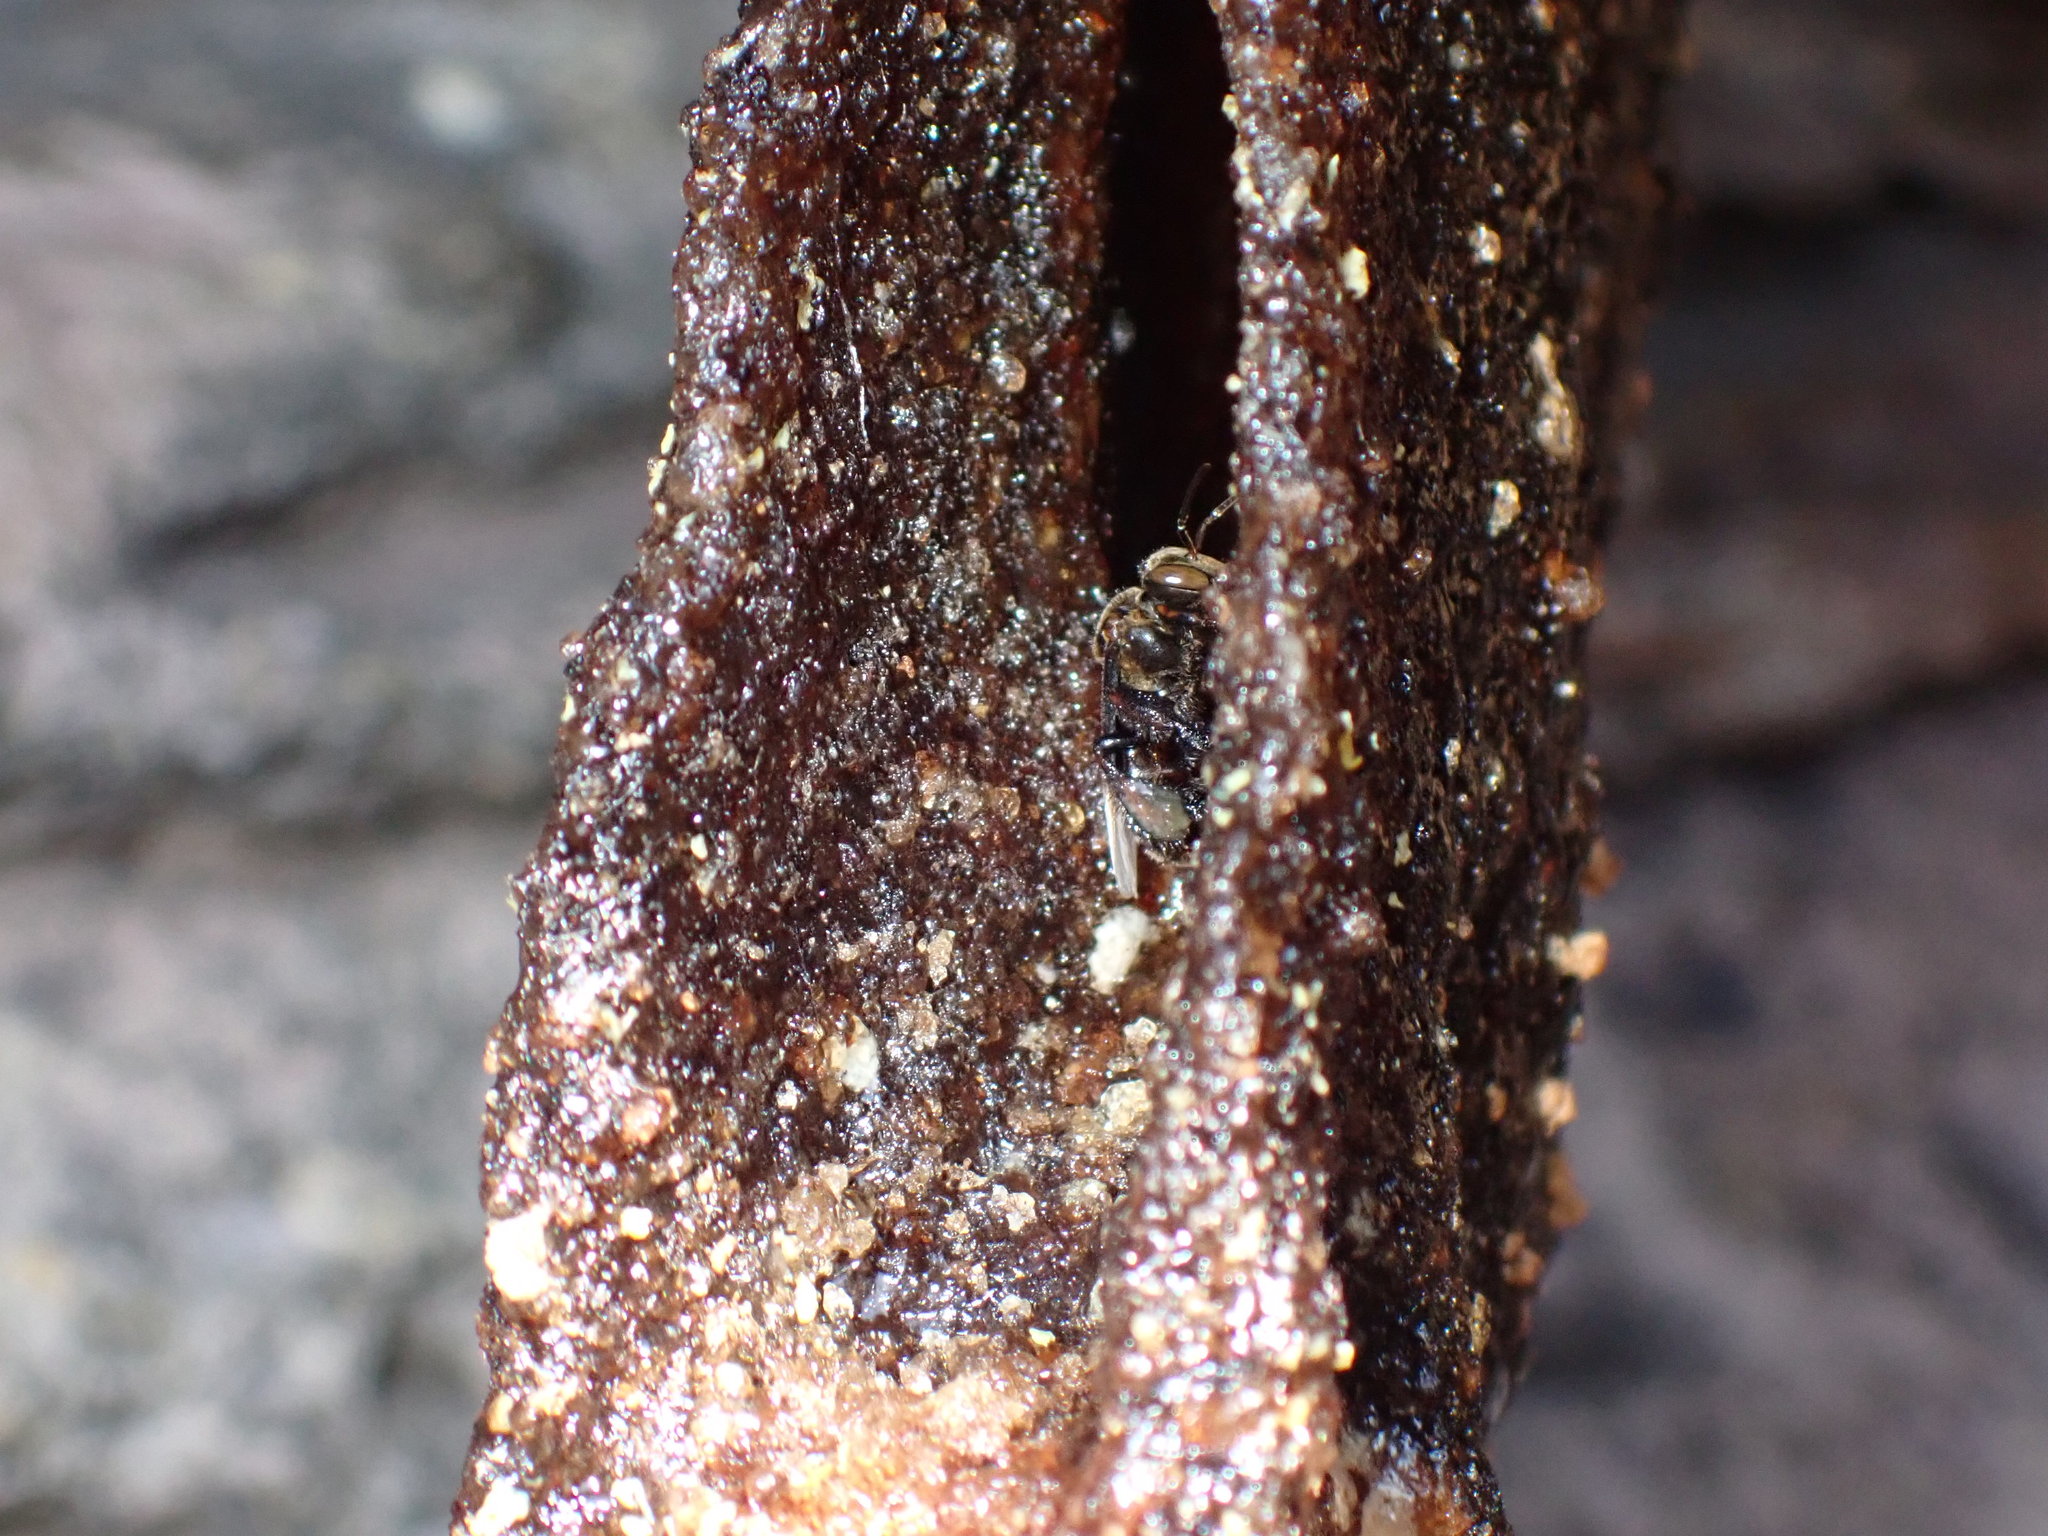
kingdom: Animalia
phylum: Arthropoda
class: Insecta
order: Hymenoptera
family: Apidae
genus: Homotrigona
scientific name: Homotrigona apicalis
